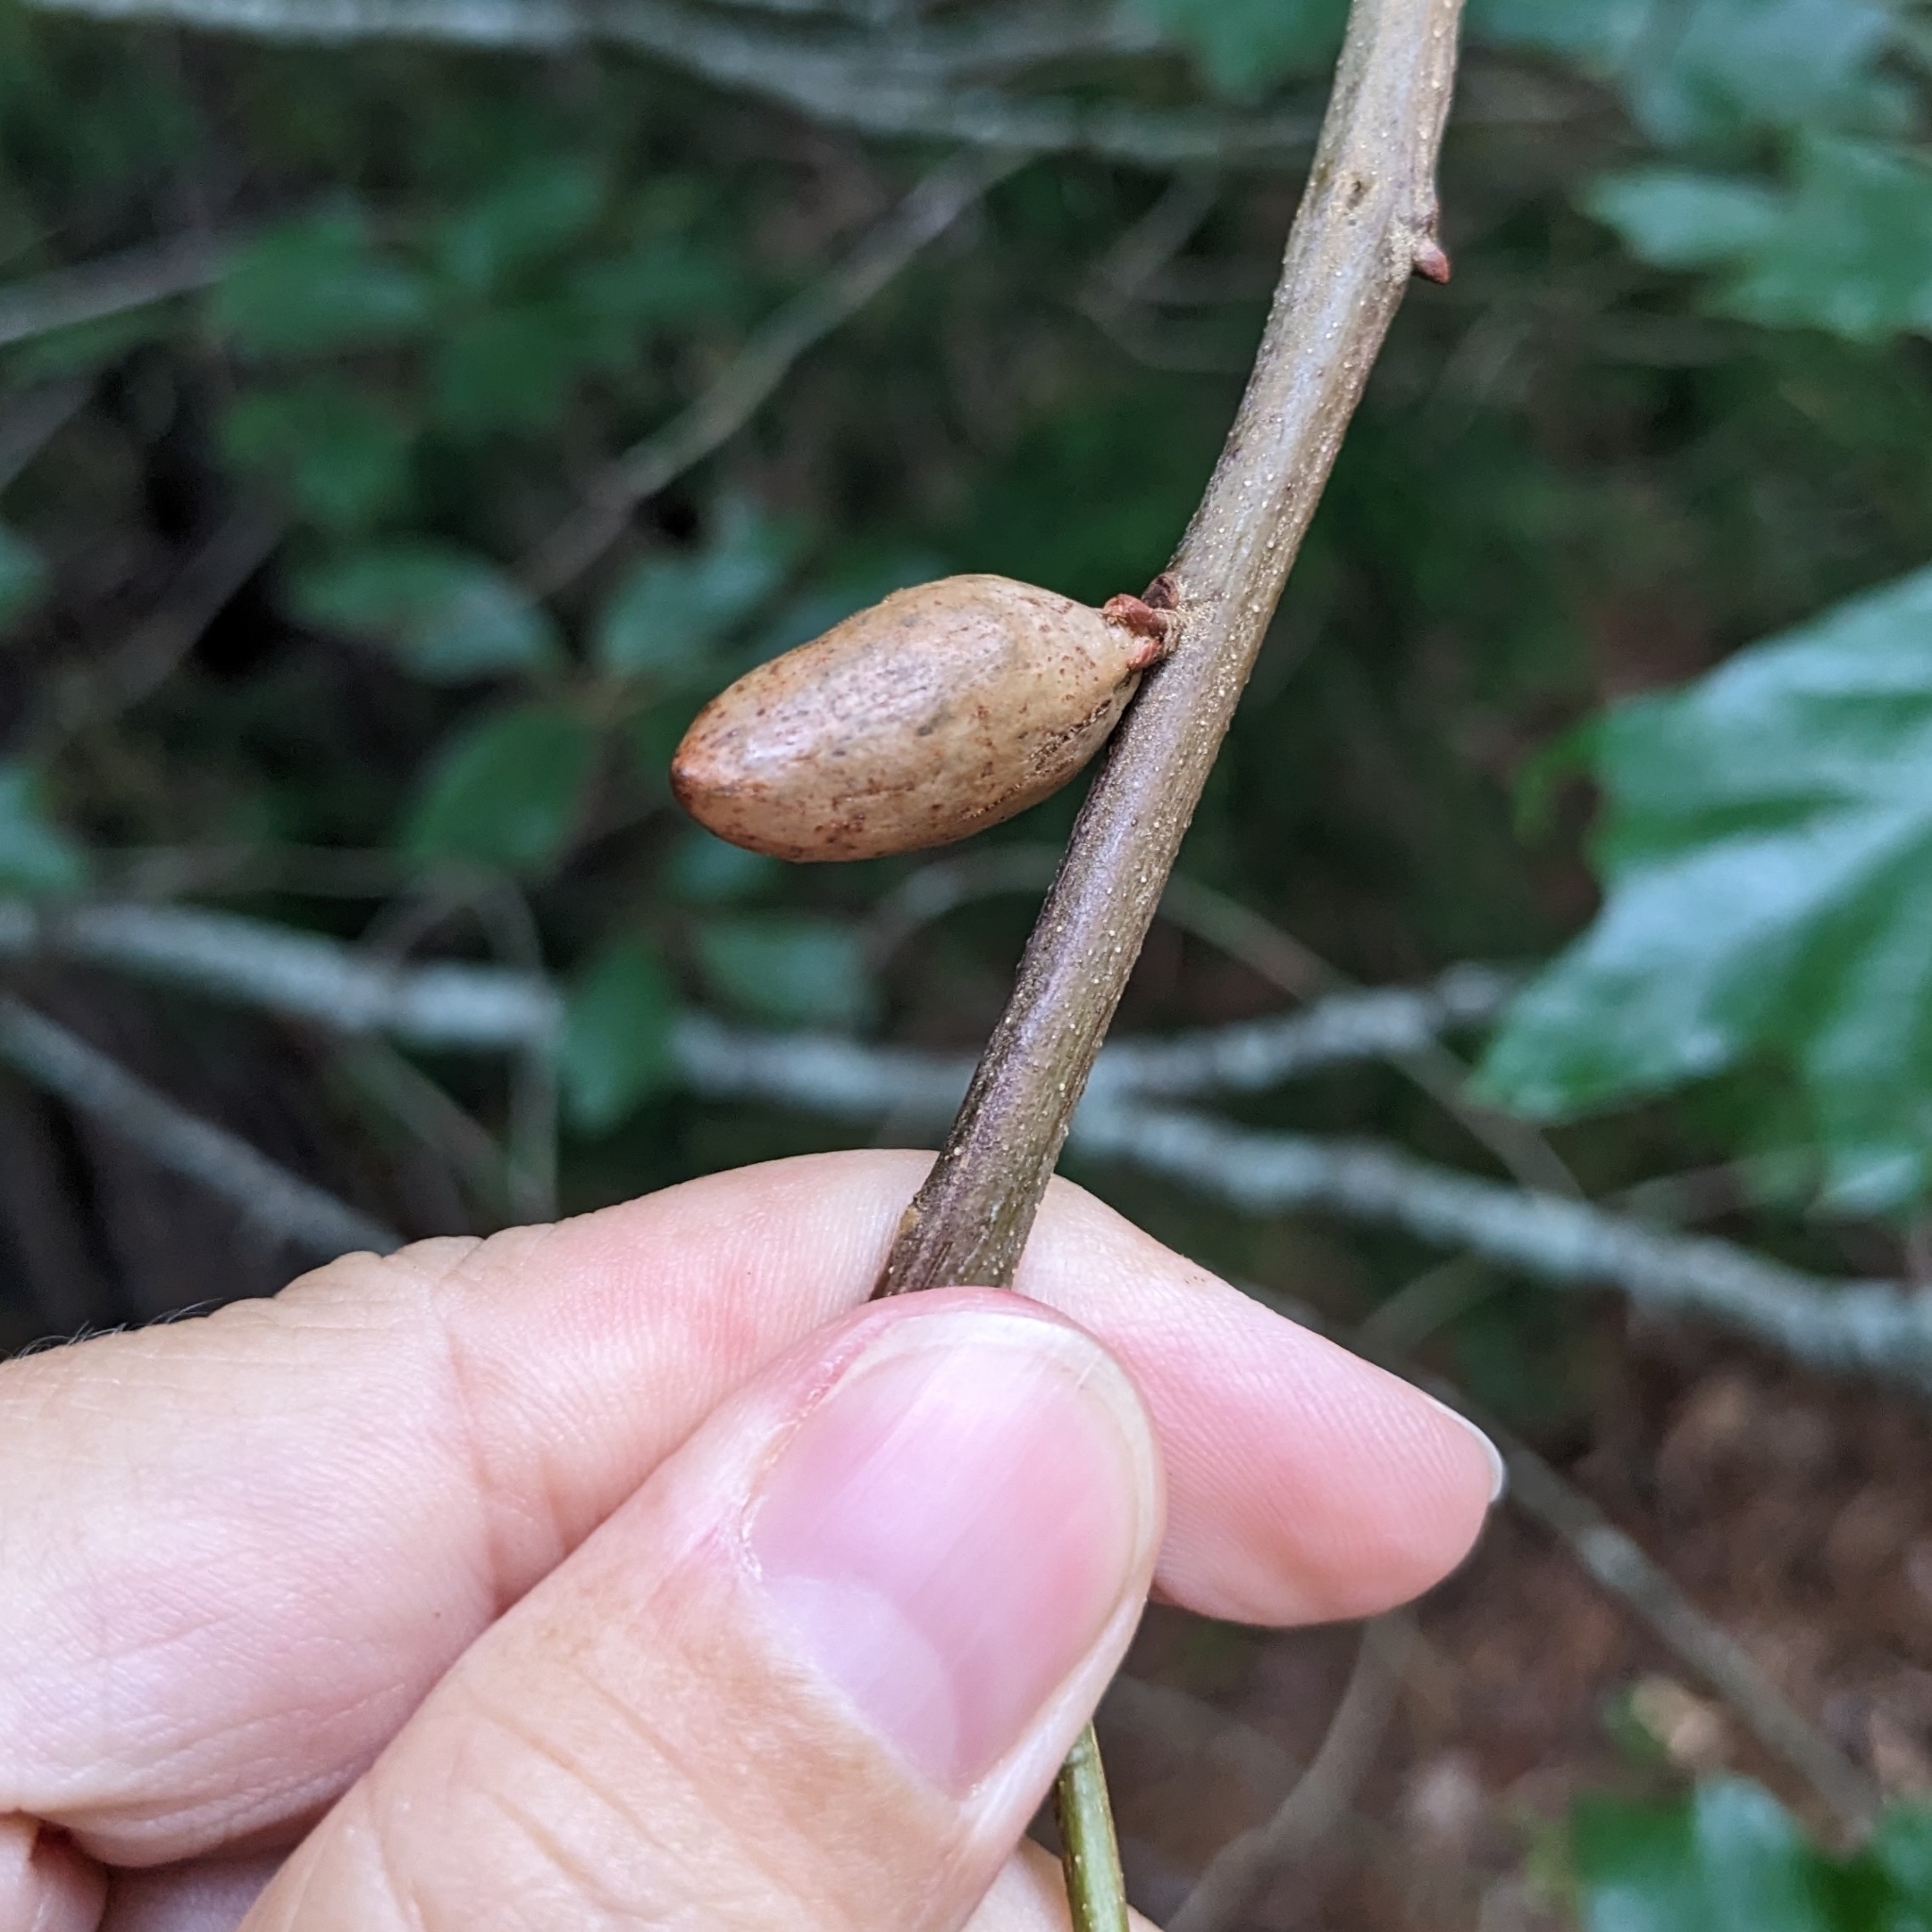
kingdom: Animalia
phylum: Arthropoda
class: Insecta
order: Hymenoptera
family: Cynipidae
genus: Amphibolips
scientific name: Amphibolips
